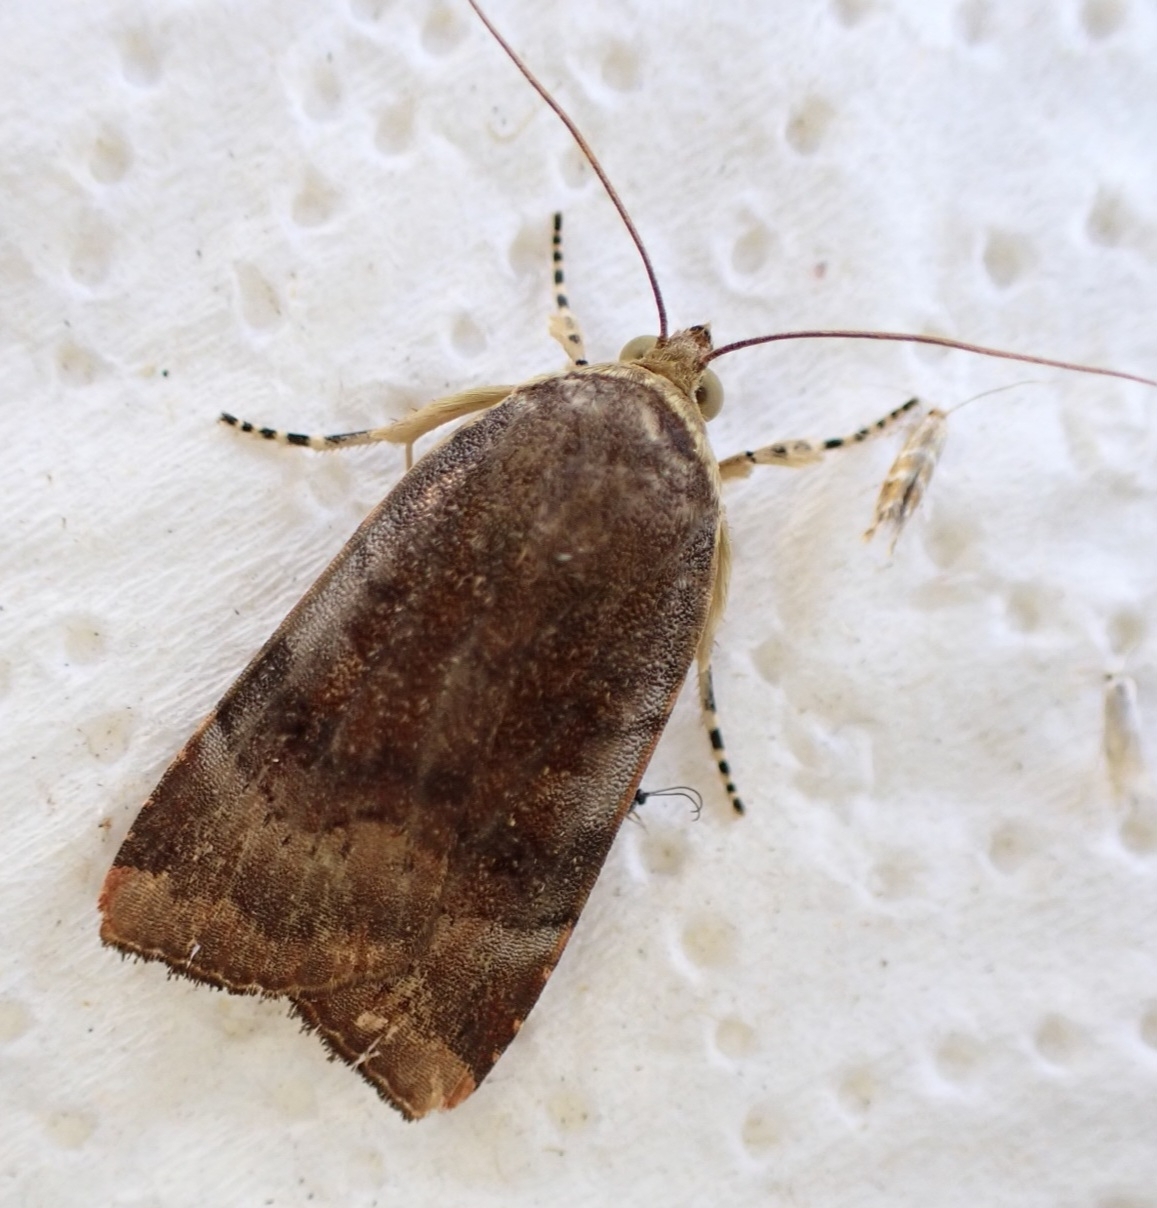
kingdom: Animalia
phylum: Arthropoda
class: Insecta
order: Lepidoptera
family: Noctuidae
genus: Noctua
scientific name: Noctua janthe
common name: Lesser broad-bordered yellow underwing
